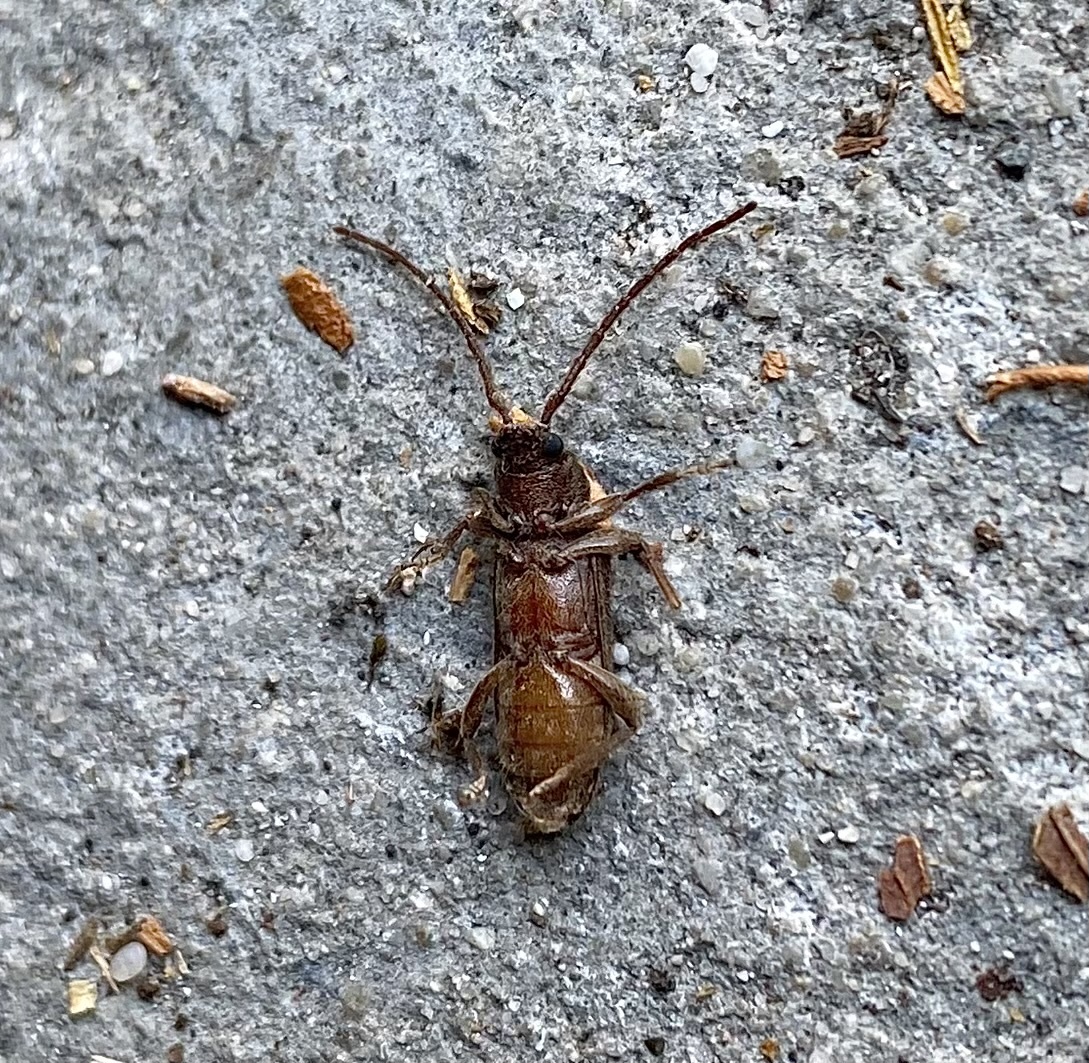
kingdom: Animalia
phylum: Arthropoda
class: Insecta
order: Coleoptera
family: Cerambycidae
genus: Zamium
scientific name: Zamium bimaculatum
